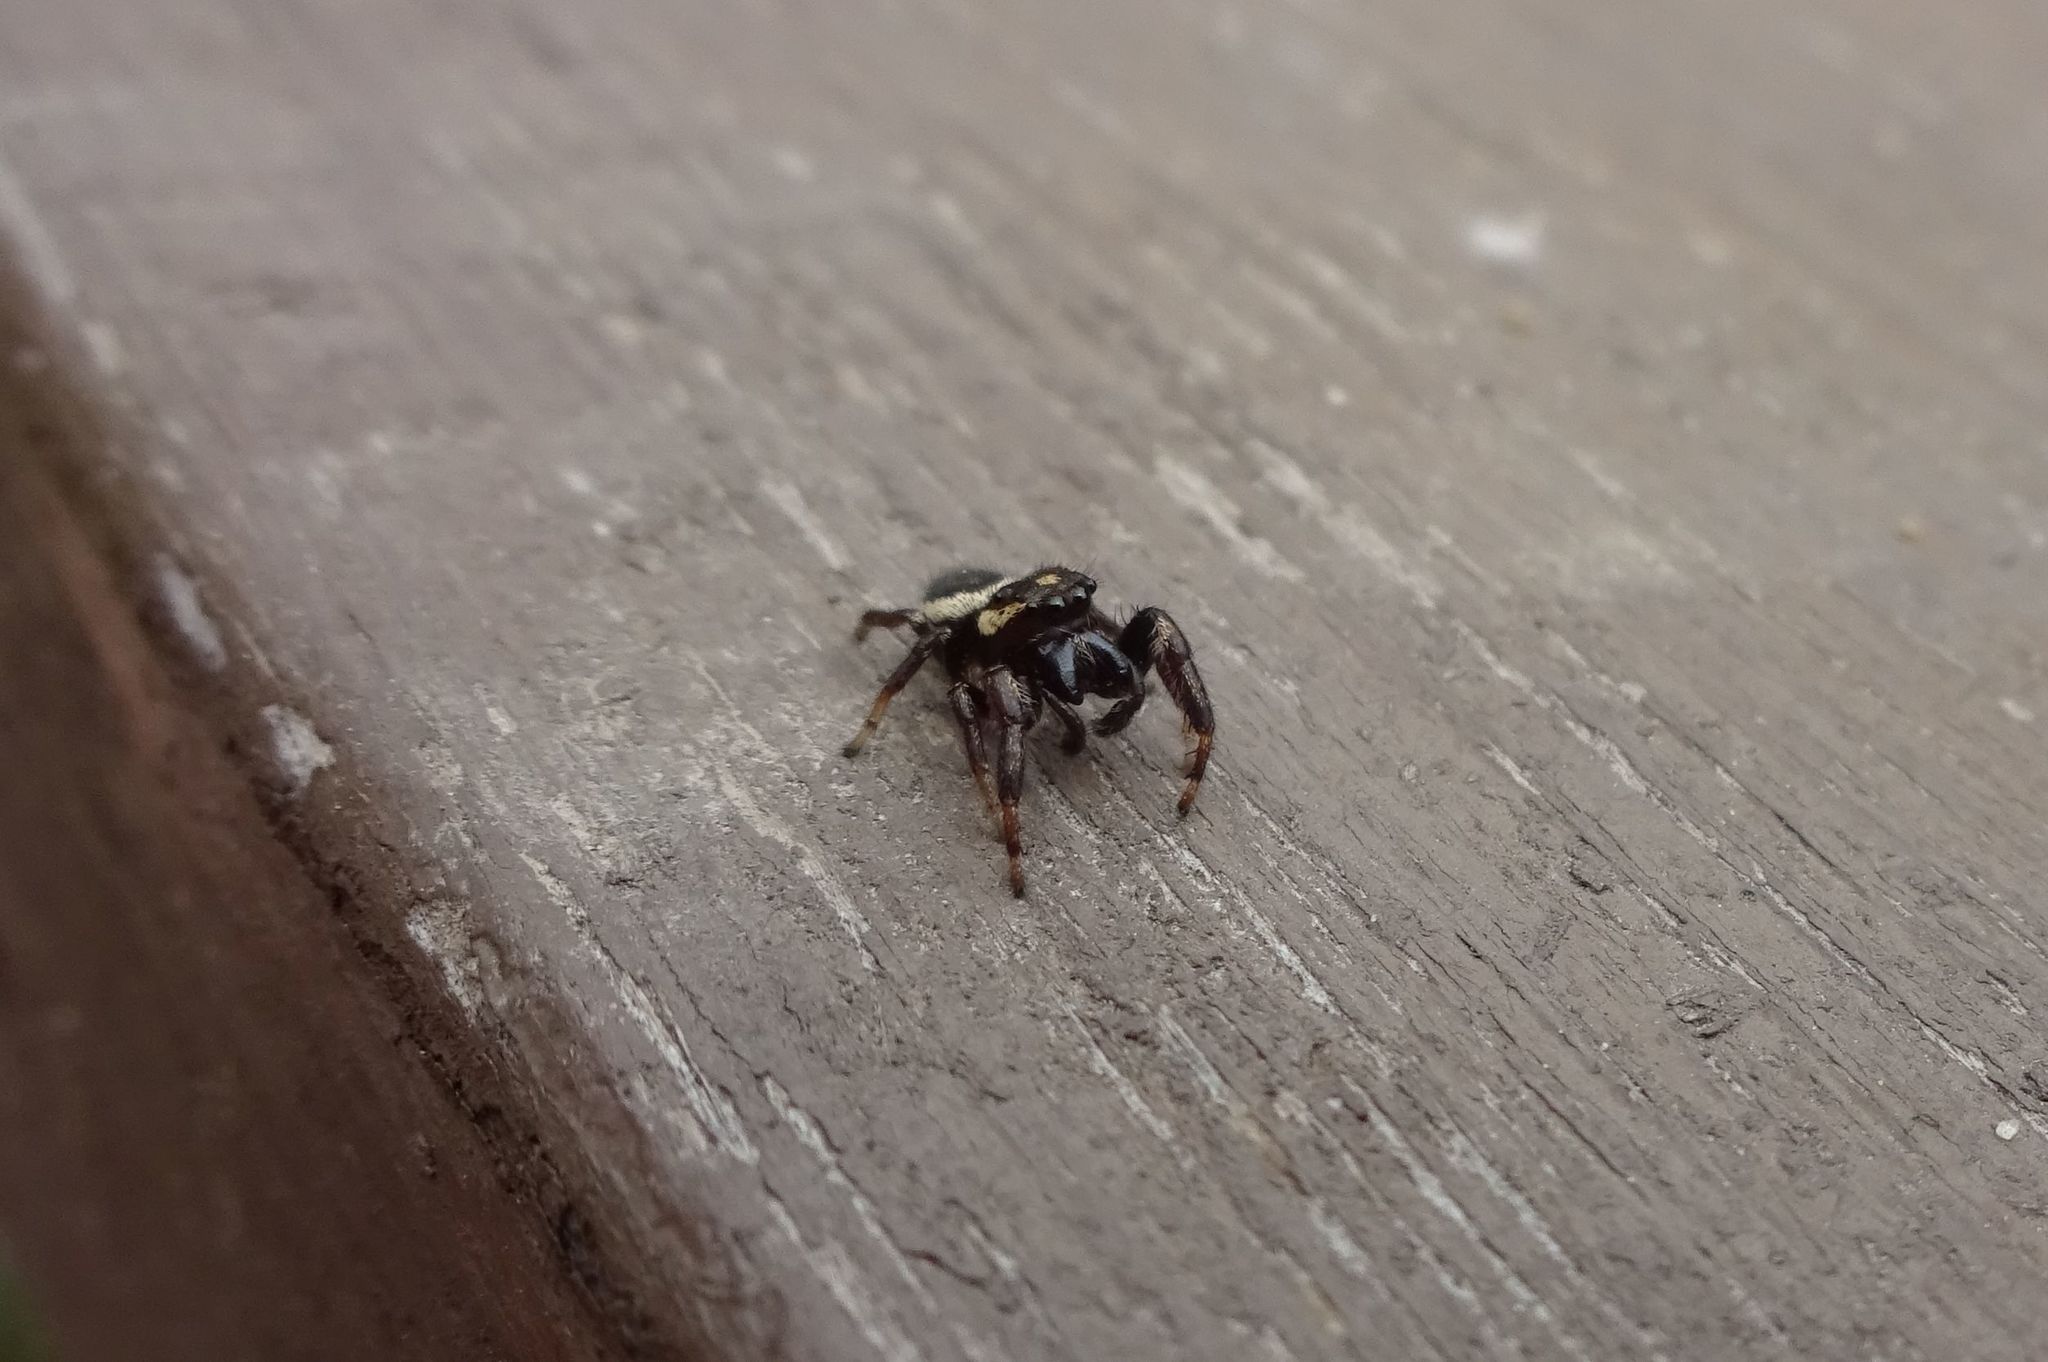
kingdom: Animalia
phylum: Arthropoda
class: Arachnida
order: Araneae
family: Salticidae
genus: Eris
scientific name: Eris militaris
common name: Bronze jumper
